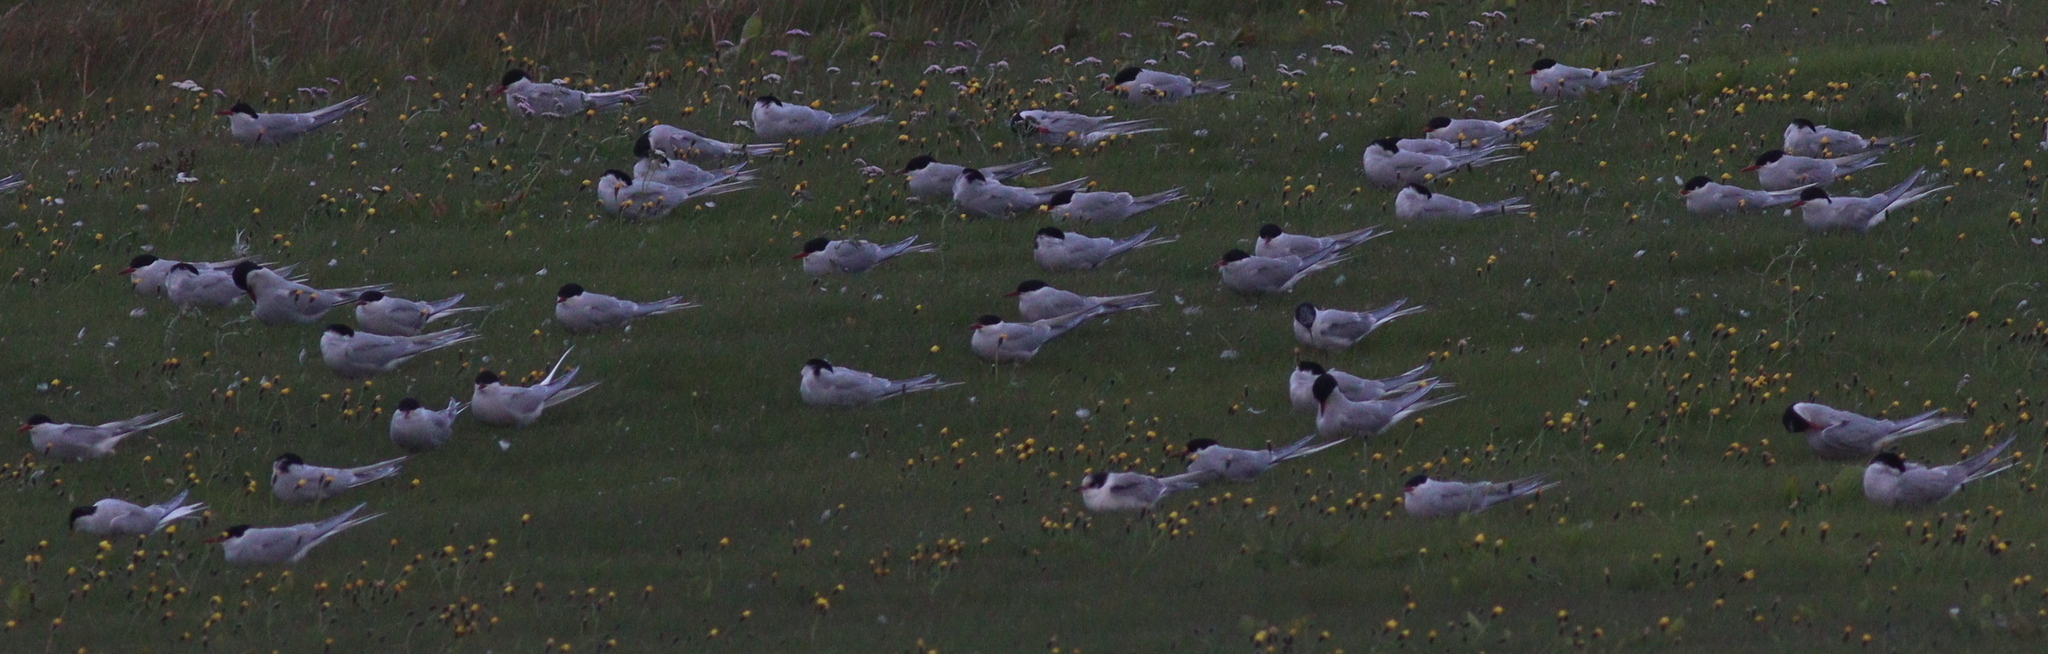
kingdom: Animalia
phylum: Chordata
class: Aves
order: Charadriiformes
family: Laridae
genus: Sterna
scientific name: Sterna paradisaea
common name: Arctic tern
